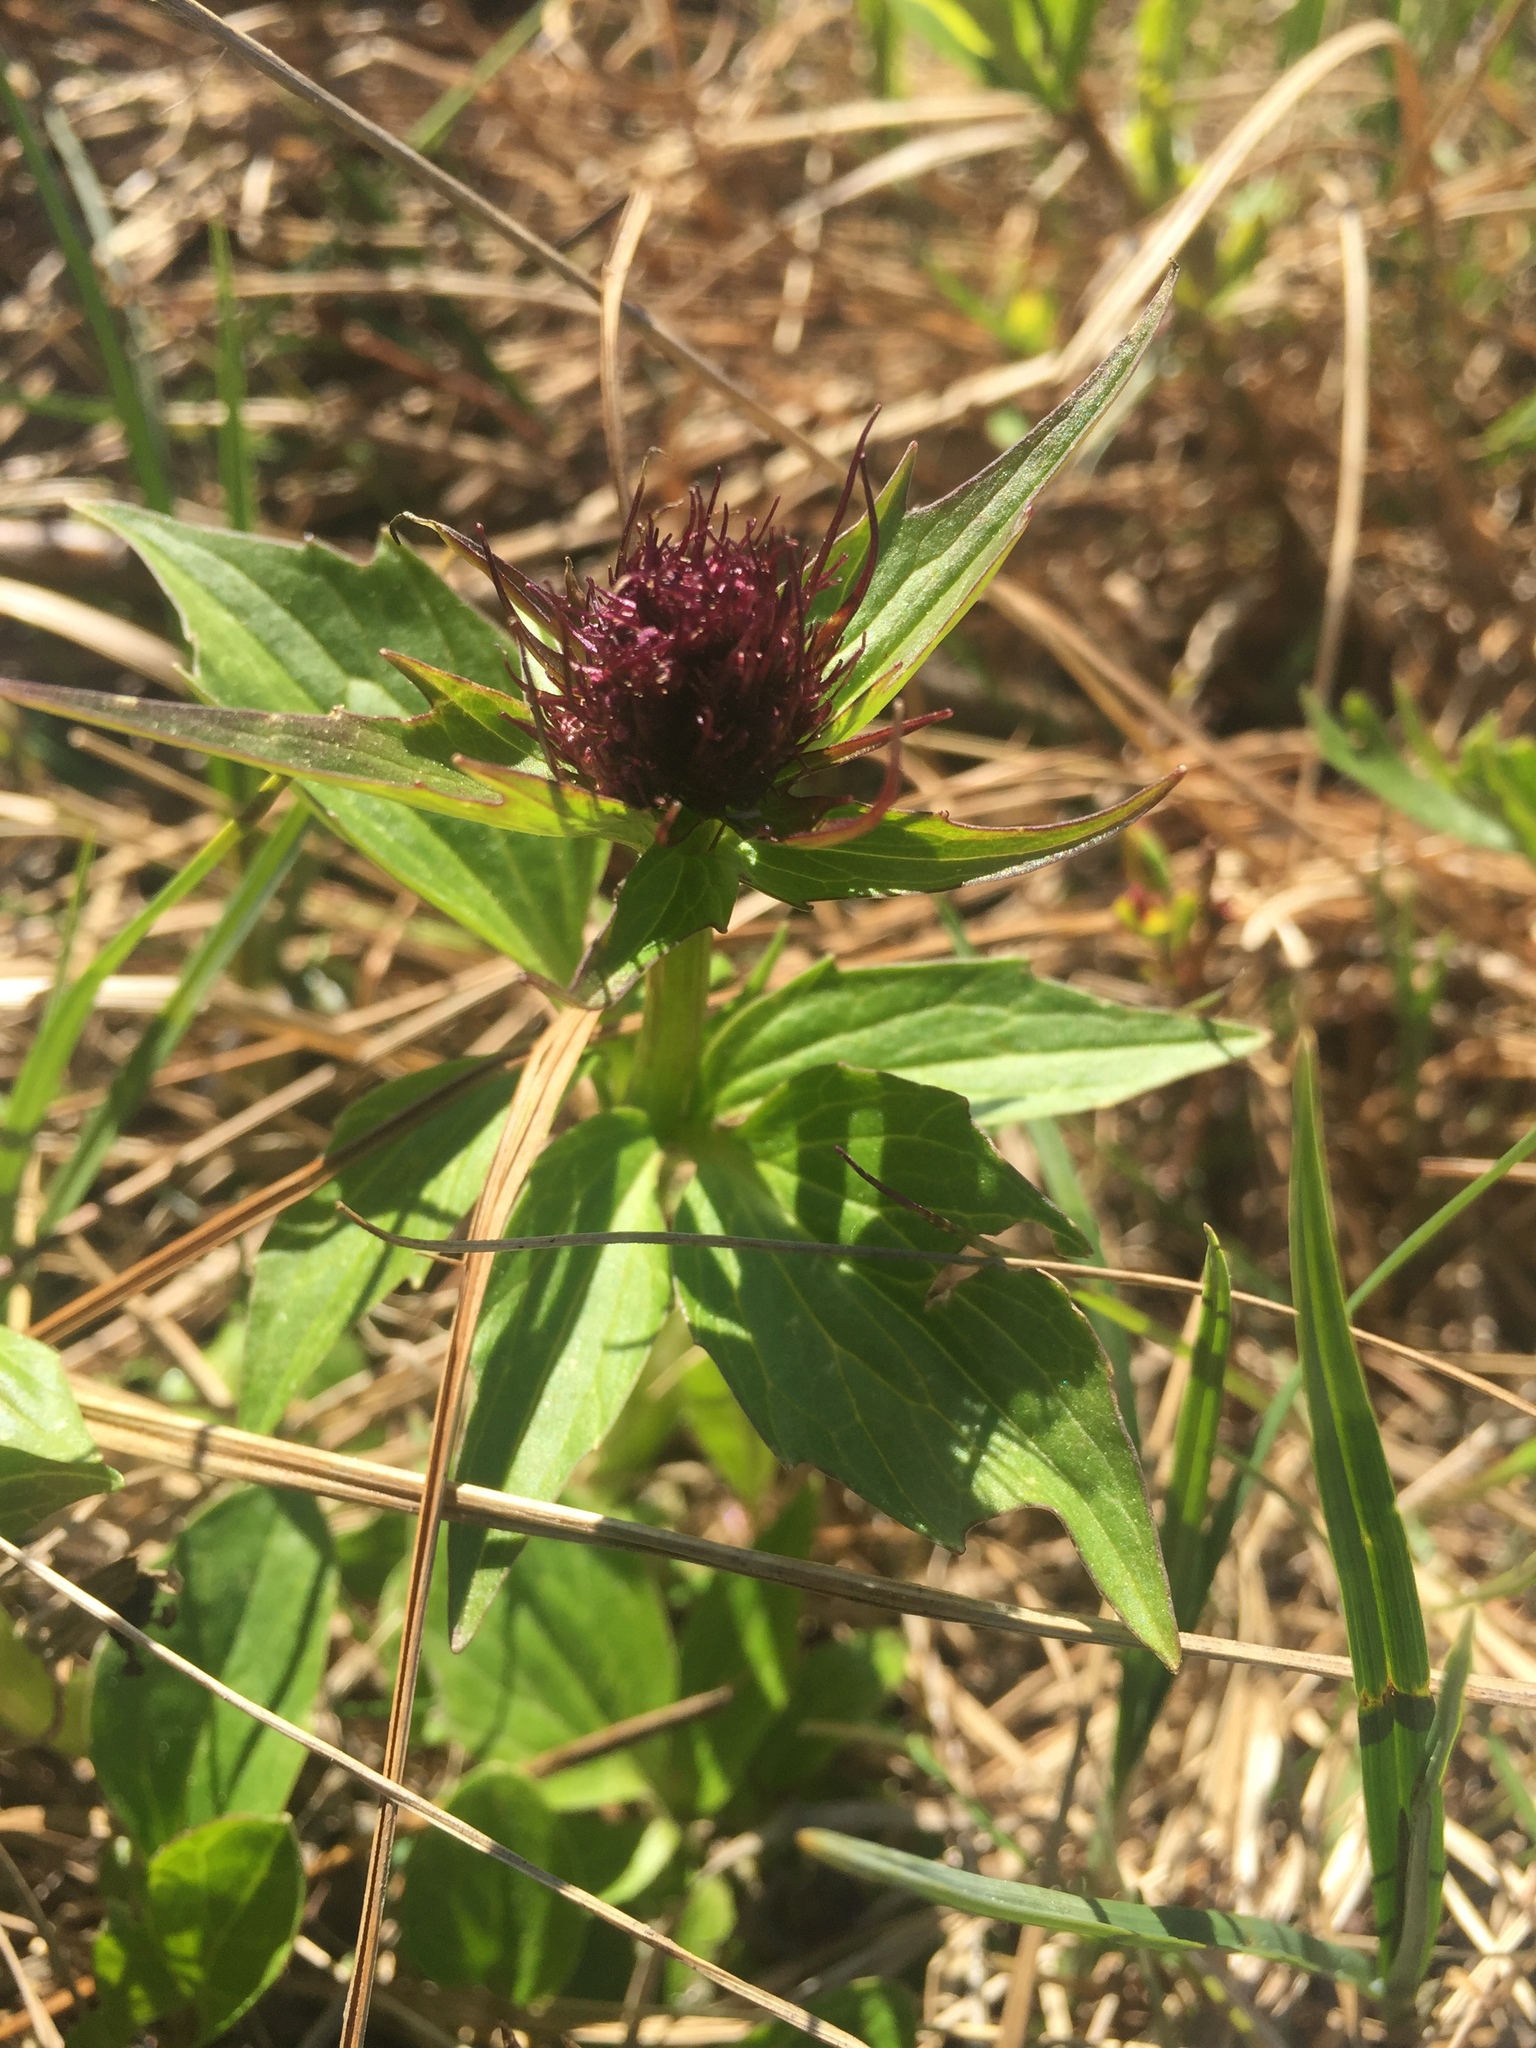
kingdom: Plantae
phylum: Tracheophyta
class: Magnoliopsida
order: Dipsacales
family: Caprifoliaceae
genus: Valeriana
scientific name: Valeriana capitata
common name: Capitate valerian
